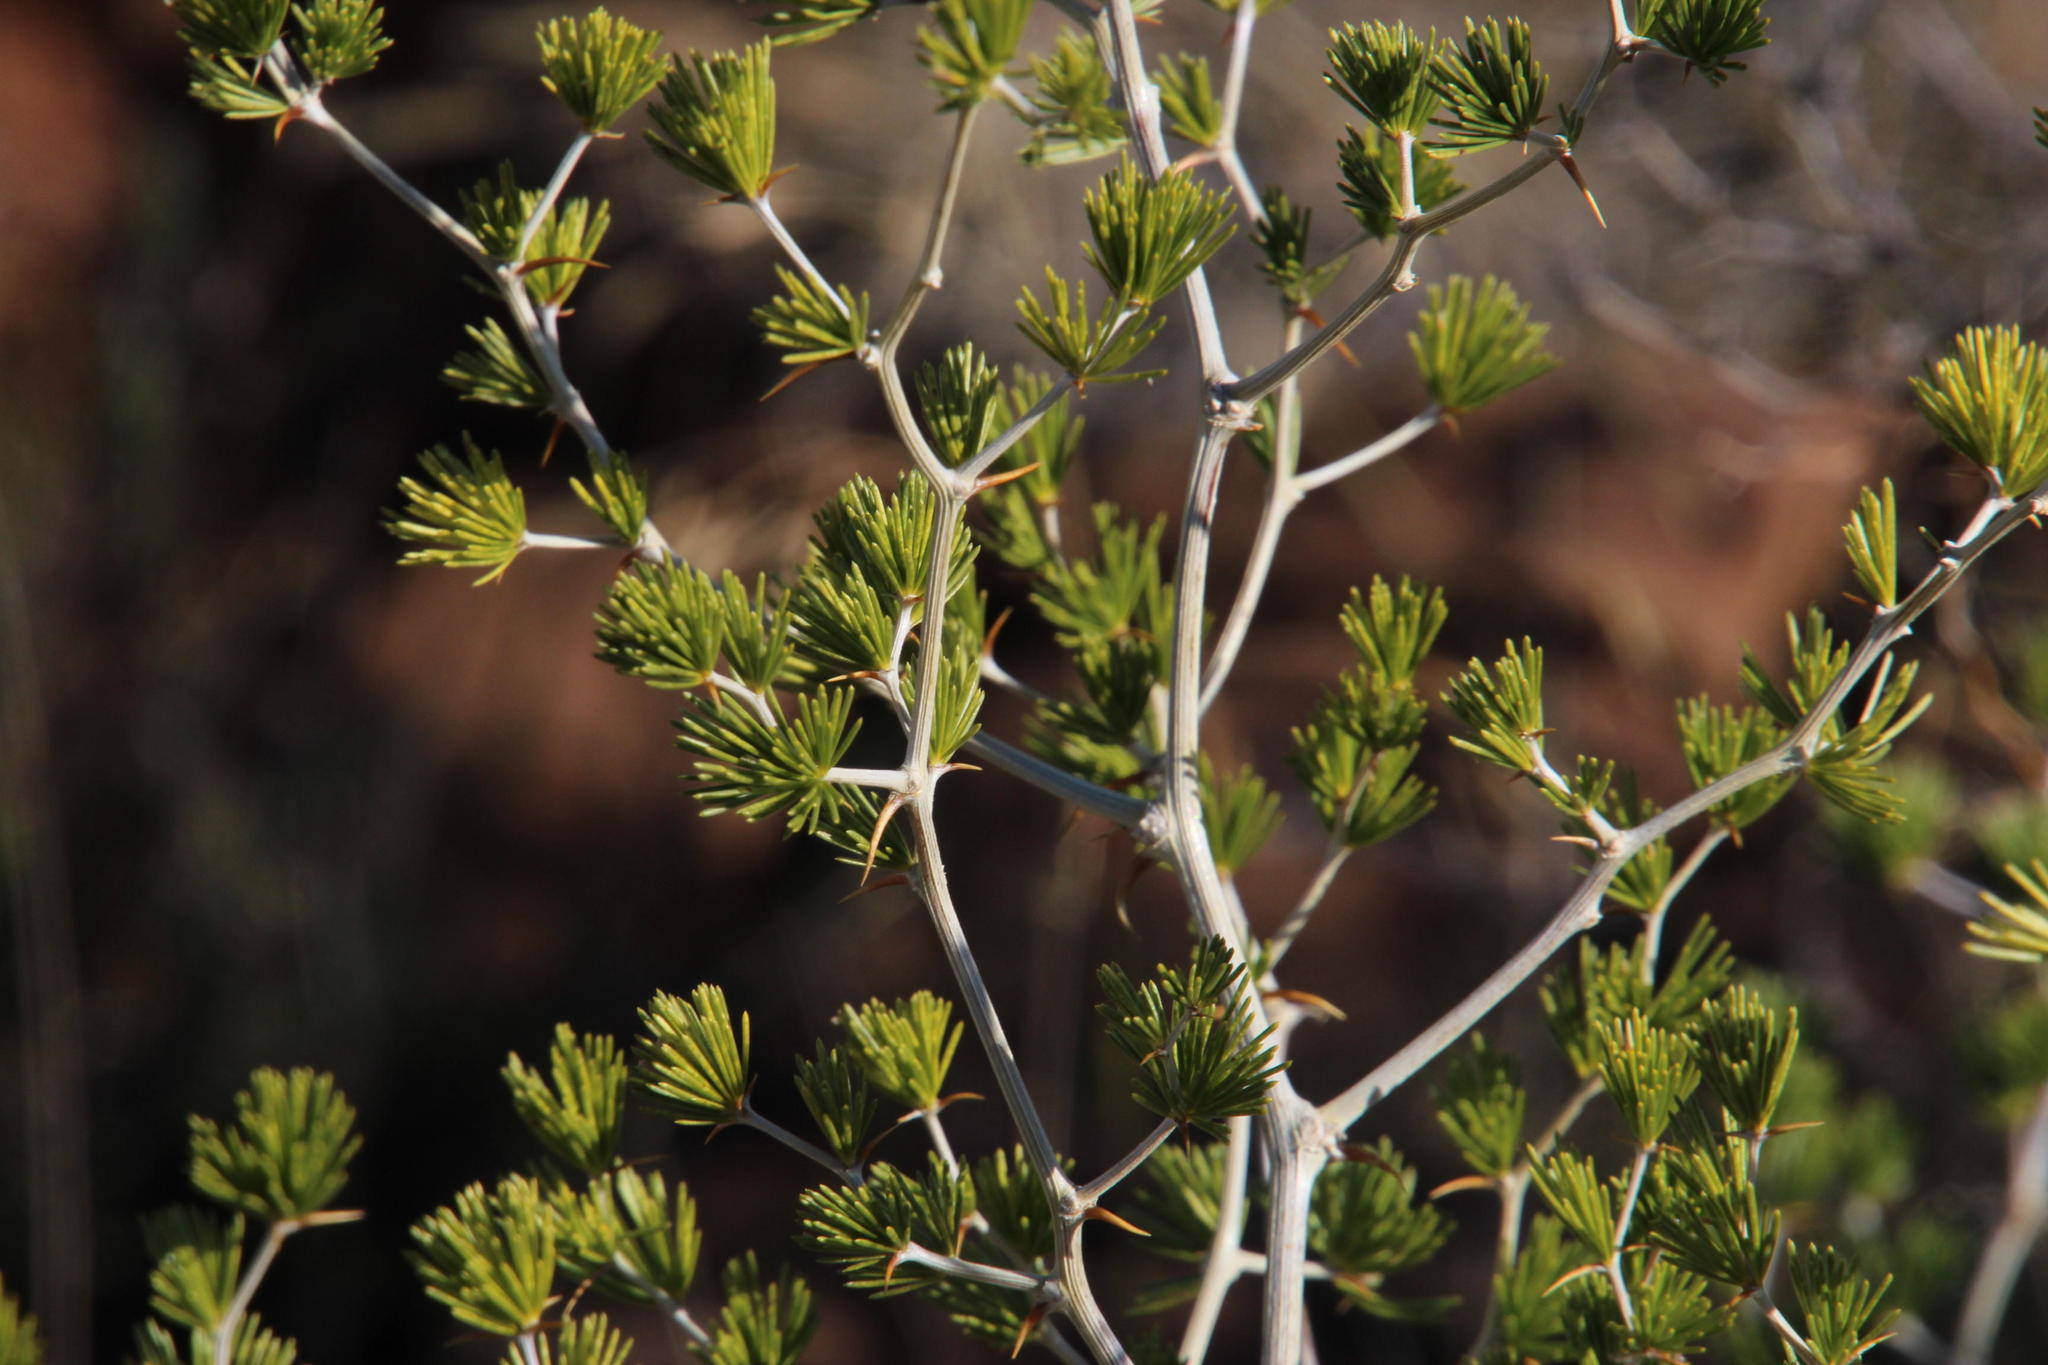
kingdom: Plantae
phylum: Tracheophyta
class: Liliopsida
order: Asparagales
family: Asparagaceae
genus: Asparagus
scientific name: Asparagus laricinus
